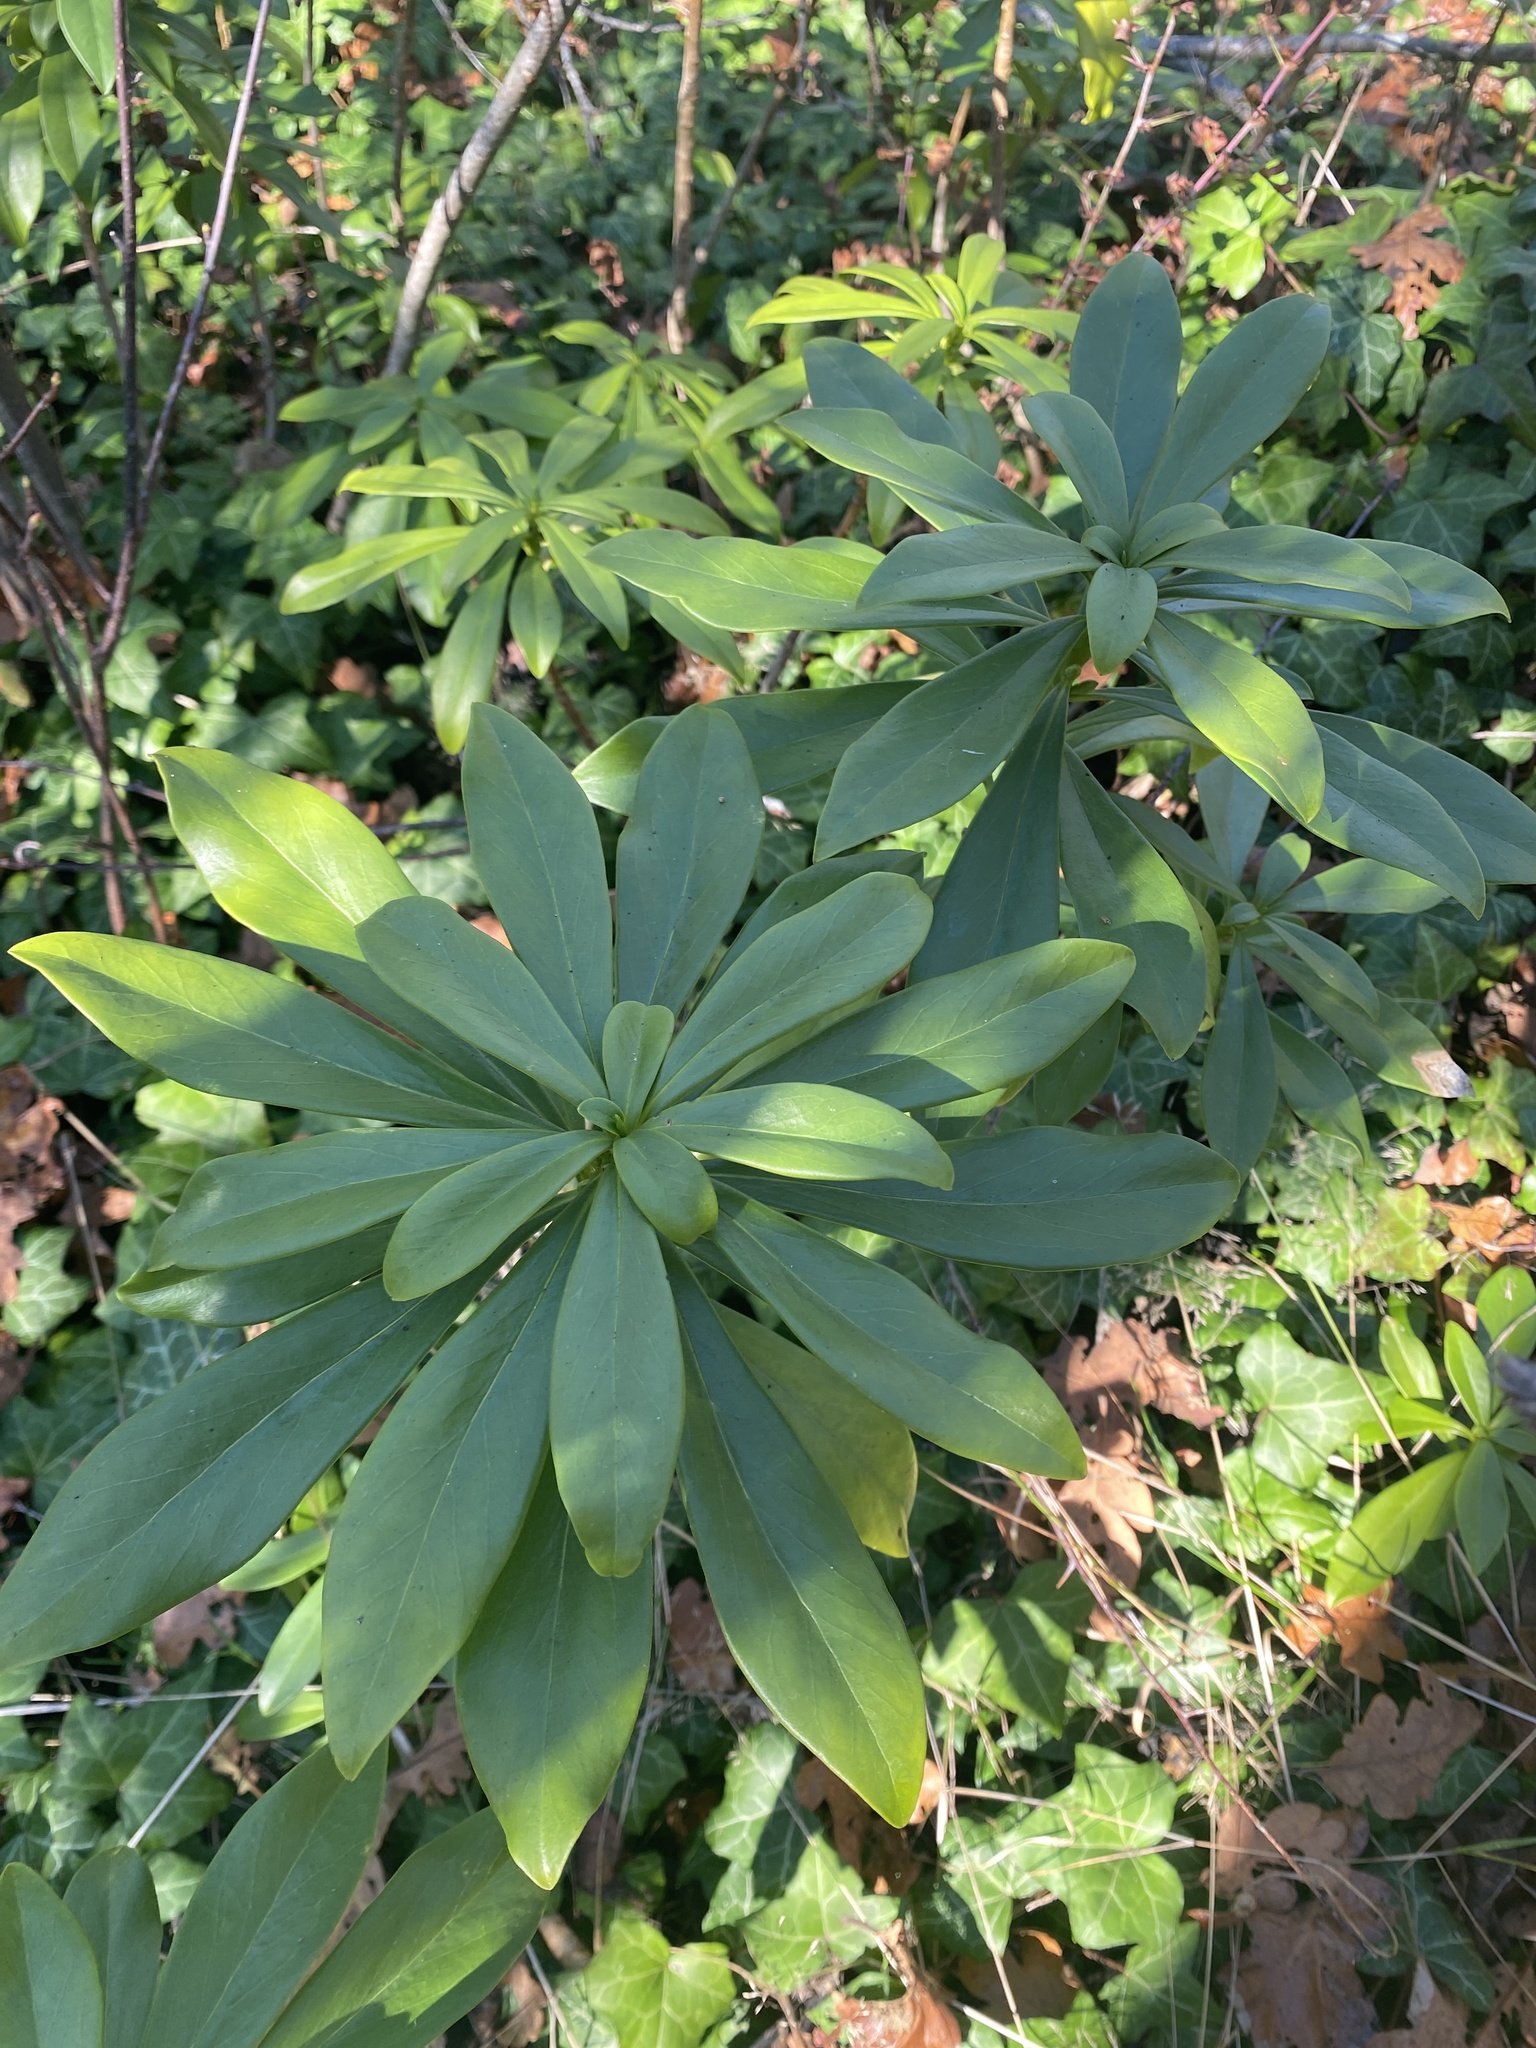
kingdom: Plantae
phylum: Tracheophyta
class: Magnoliopsida
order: Malvales
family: Thymelaeaceae
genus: Daphne
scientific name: Daphne laureola
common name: Spurge-laurel
